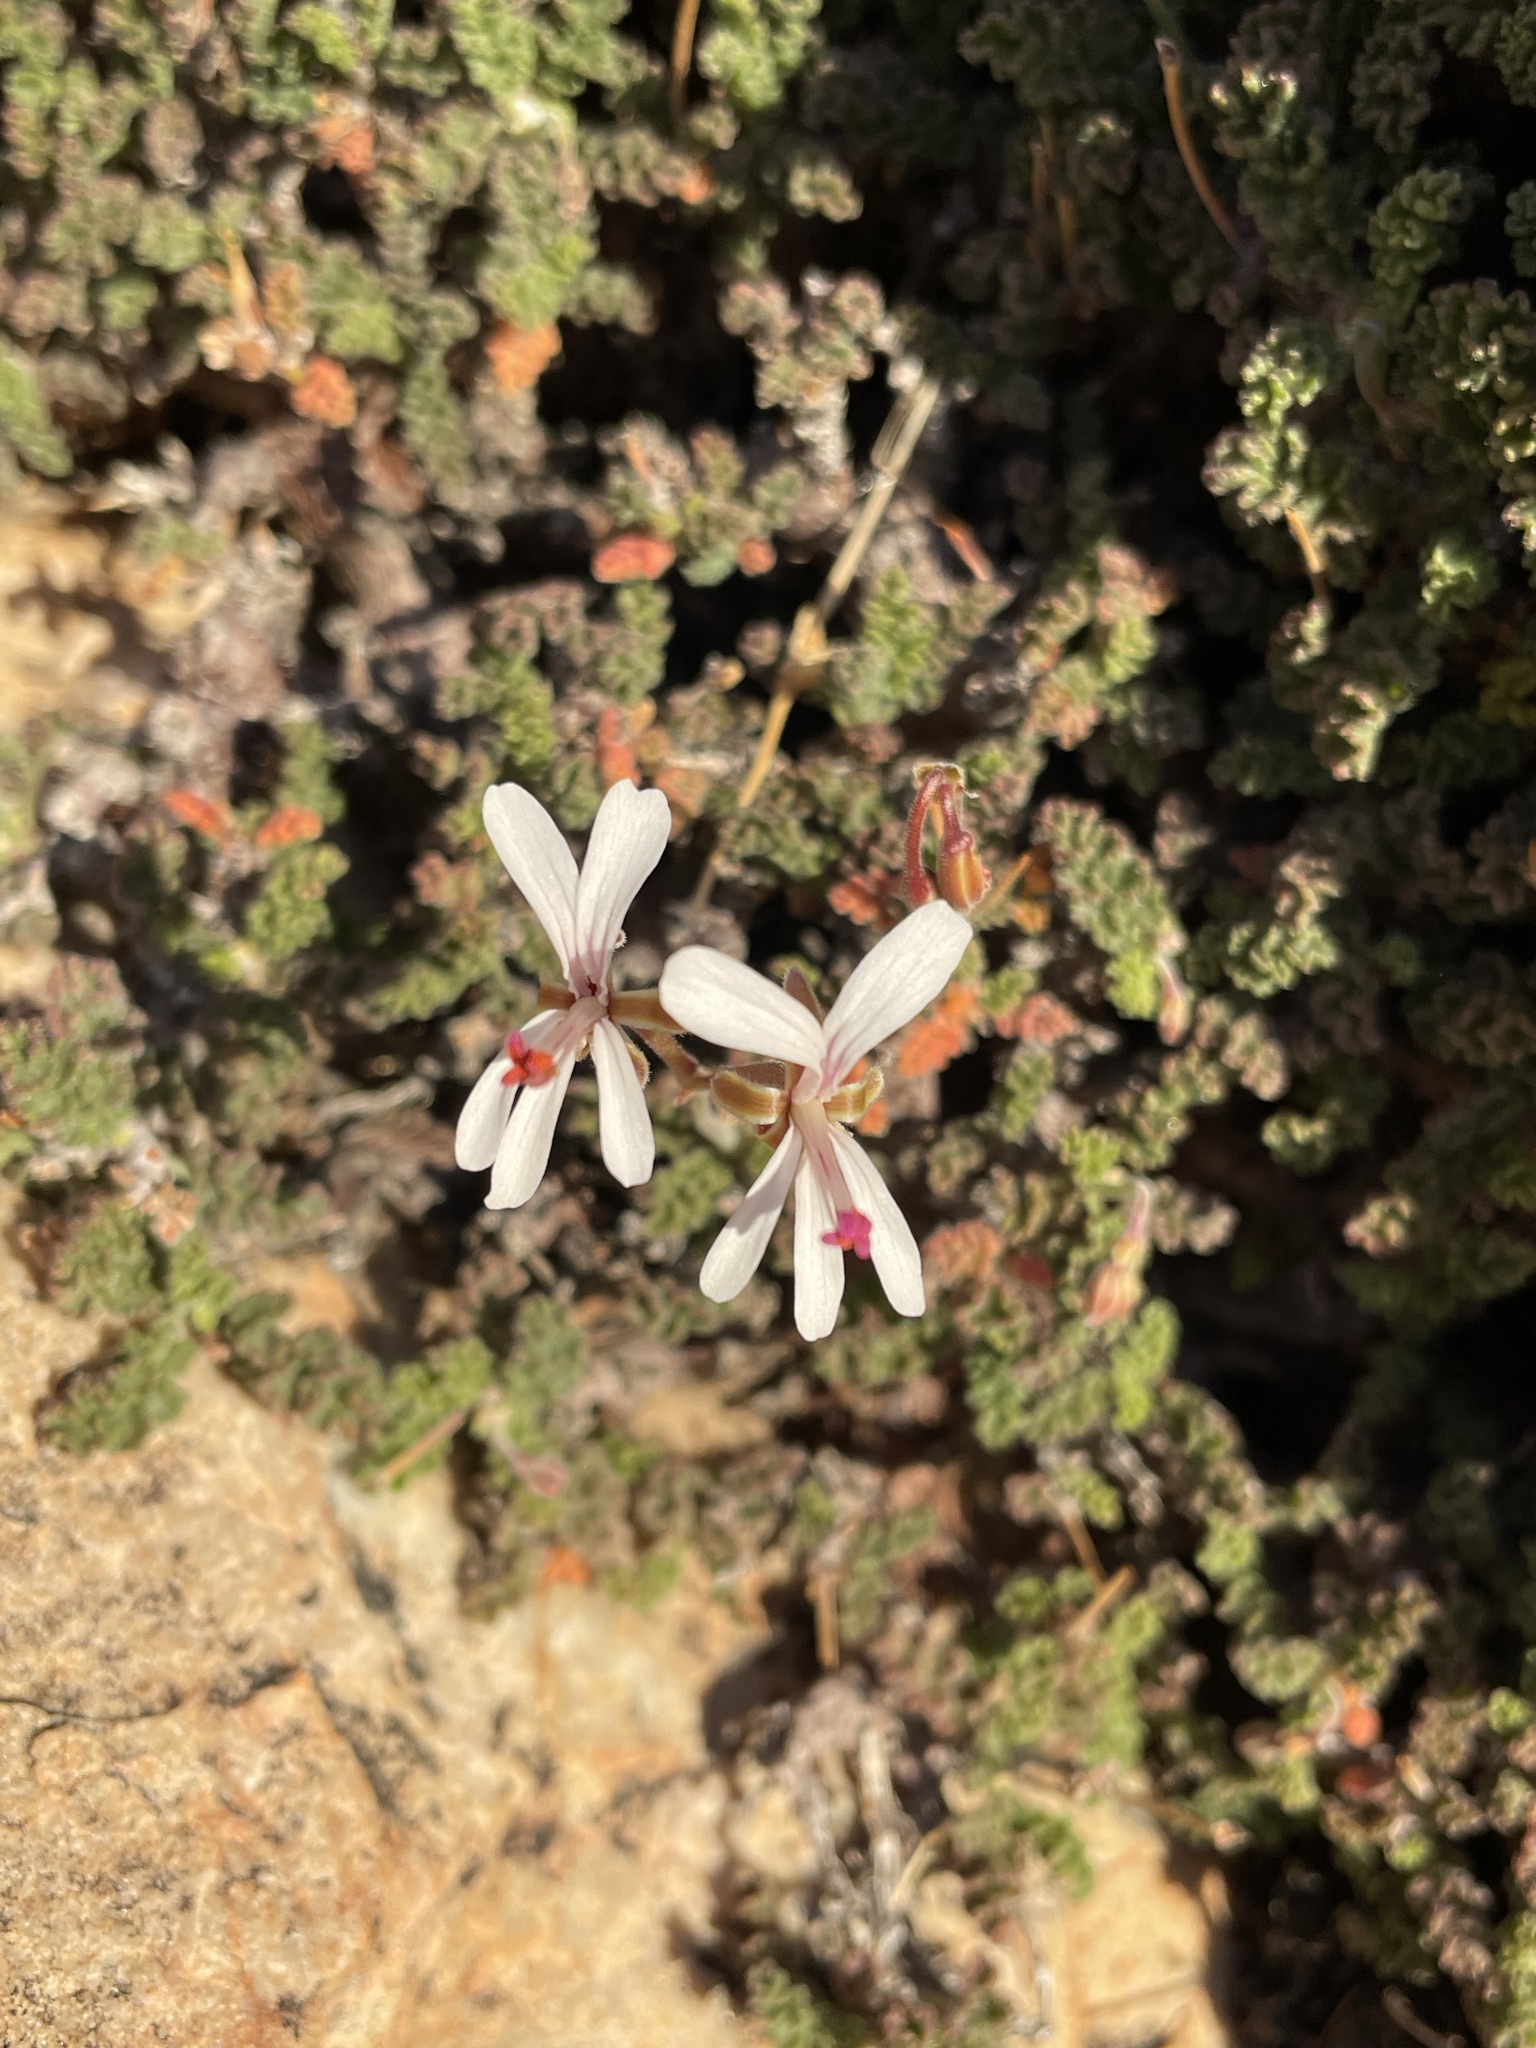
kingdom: Plantae
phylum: Tracheophyta
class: Magnoliopsida
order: Geraniales
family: Geraniaceae
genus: Pelargonium
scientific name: Pelargonium alternans
